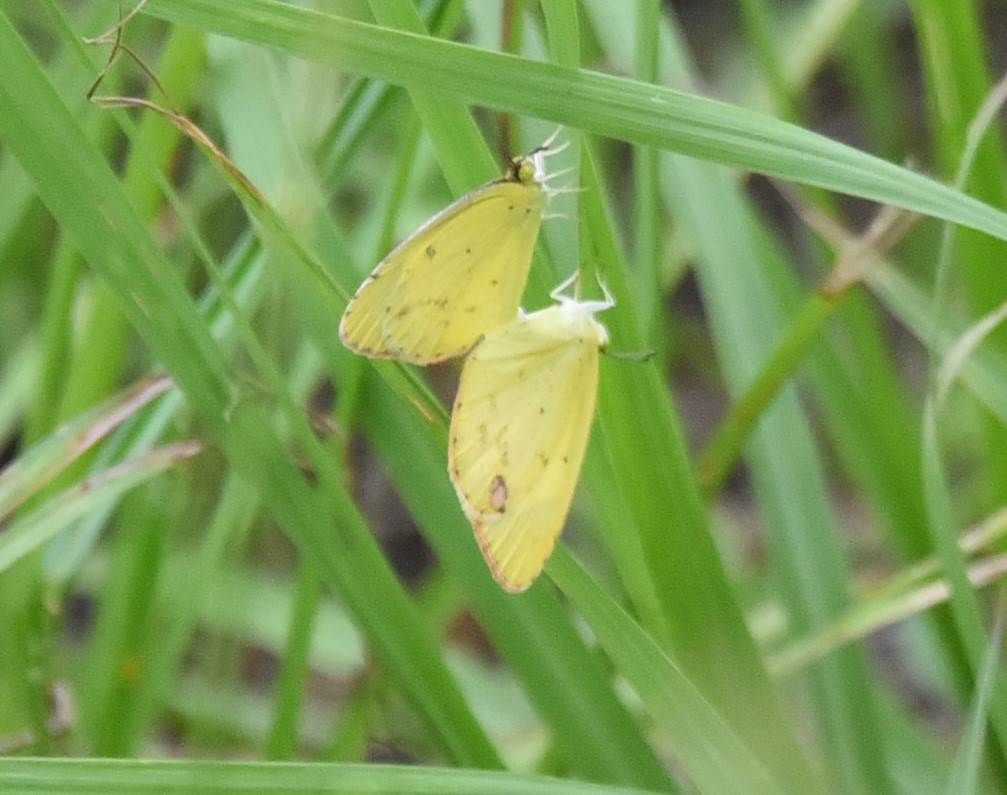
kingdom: Animalia
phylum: Arthropoda
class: Insecta
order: Lepidoptera
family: Pieridae
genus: Pyrisitia
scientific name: Pyrisitia lisa
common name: Little yellow
